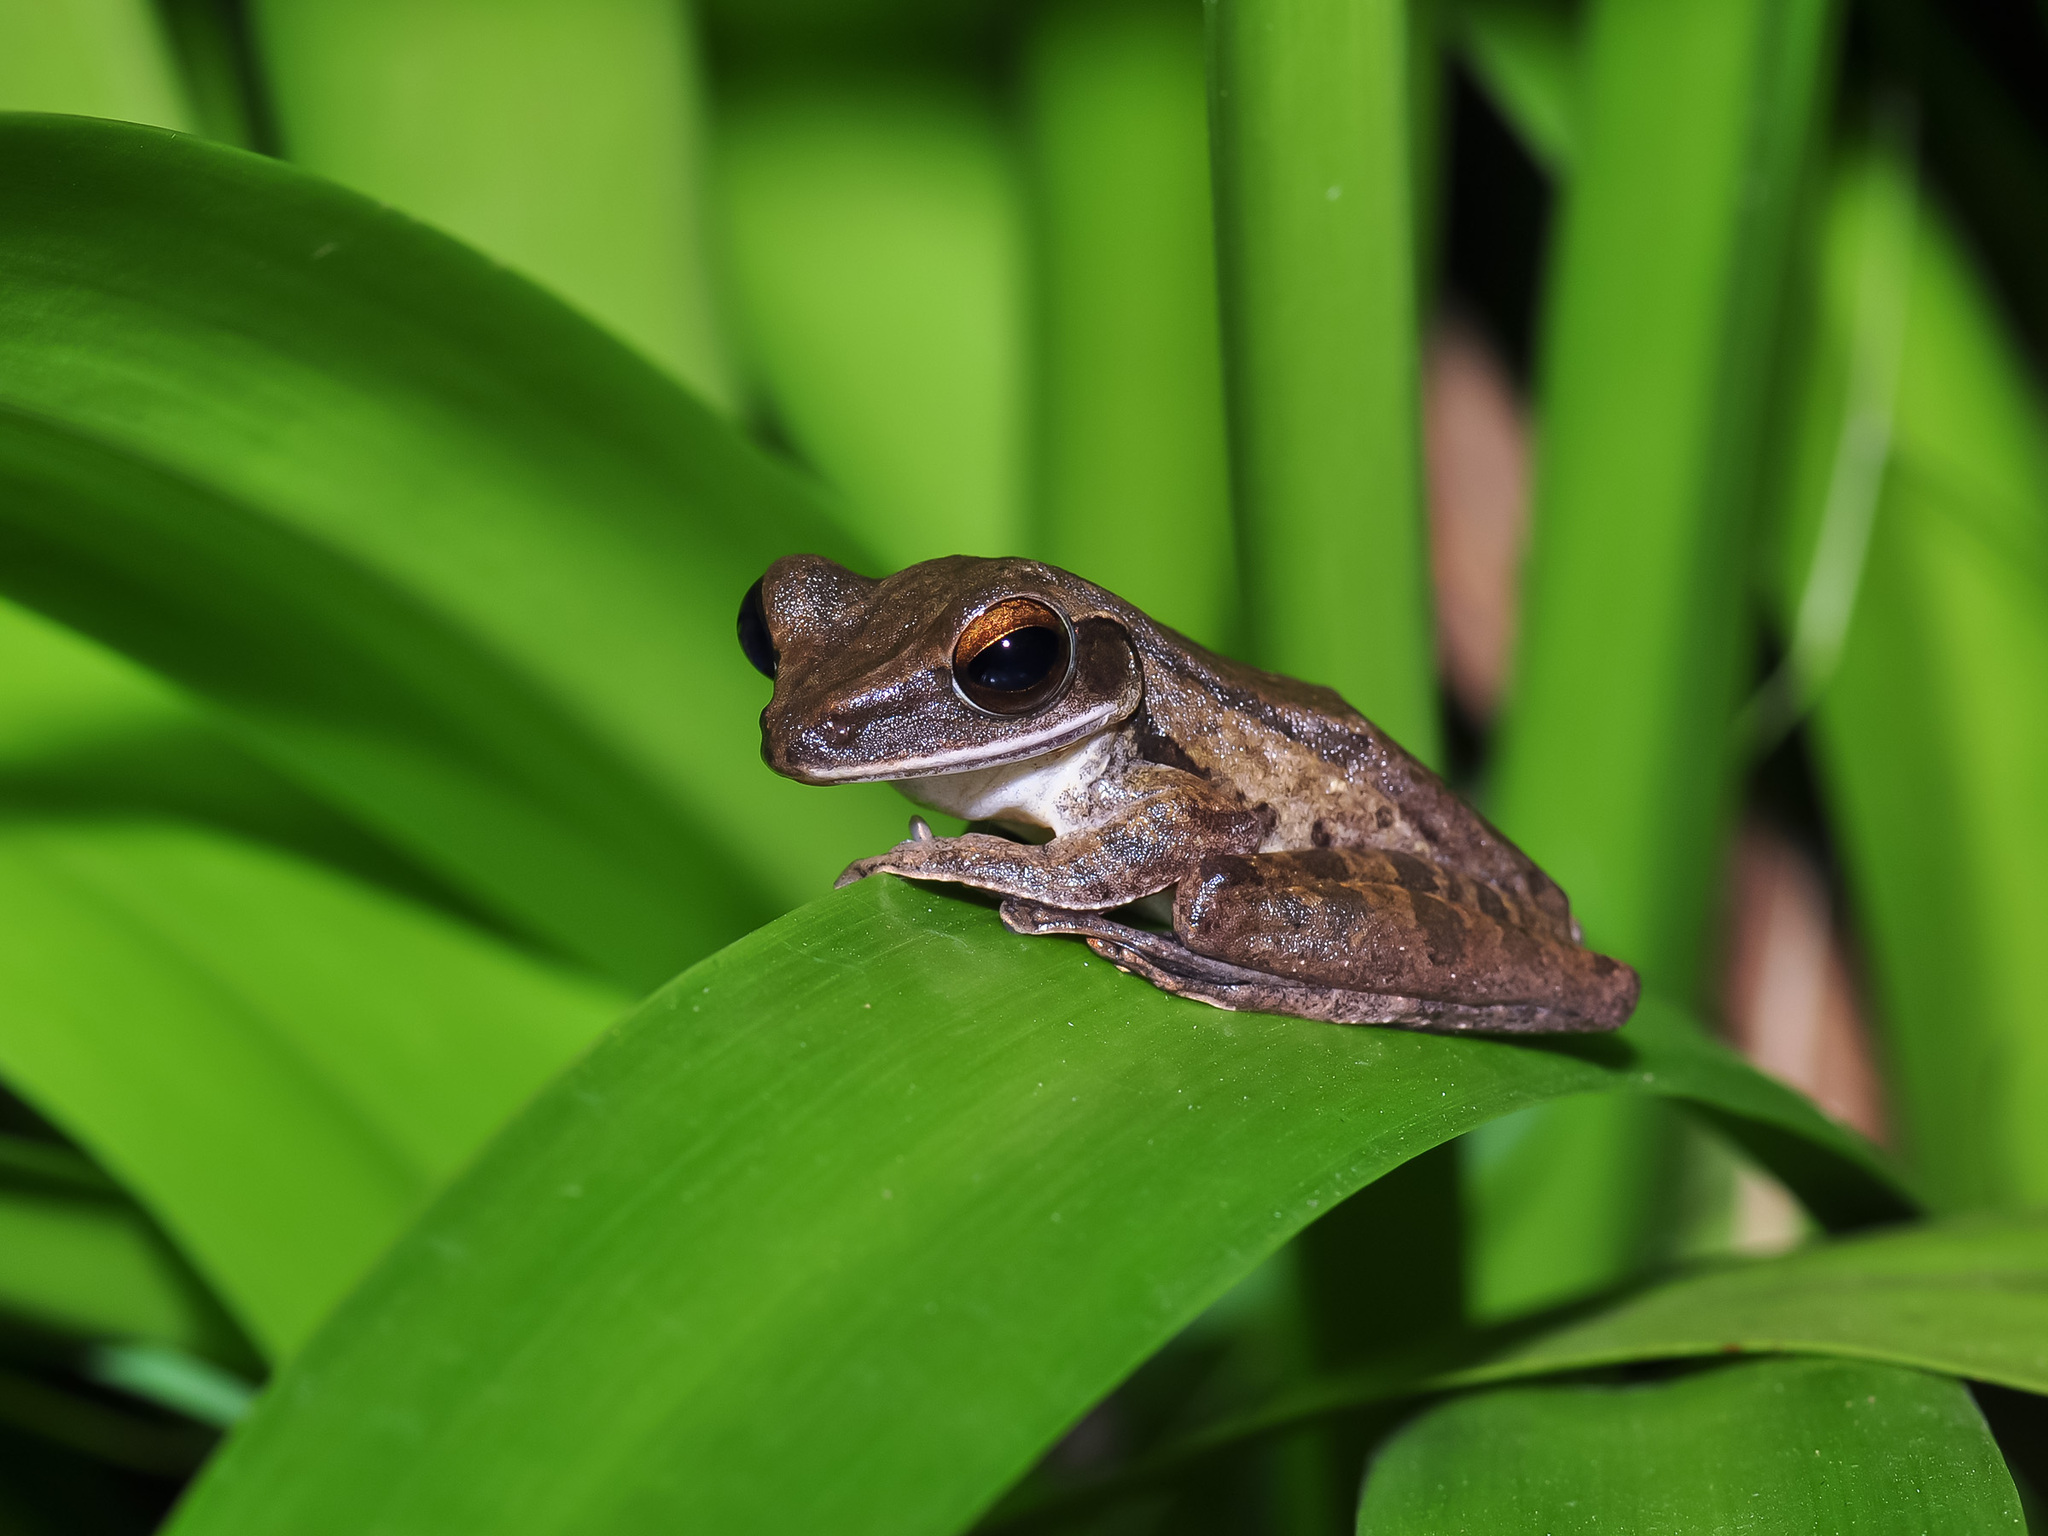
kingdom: Animalia
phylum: Chordata
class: Amphibia
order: Anura
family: Rhacophoridae
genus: Polypedates
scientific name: Polypedates leucomystax
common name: Common tree frog/four-lined tree frog
